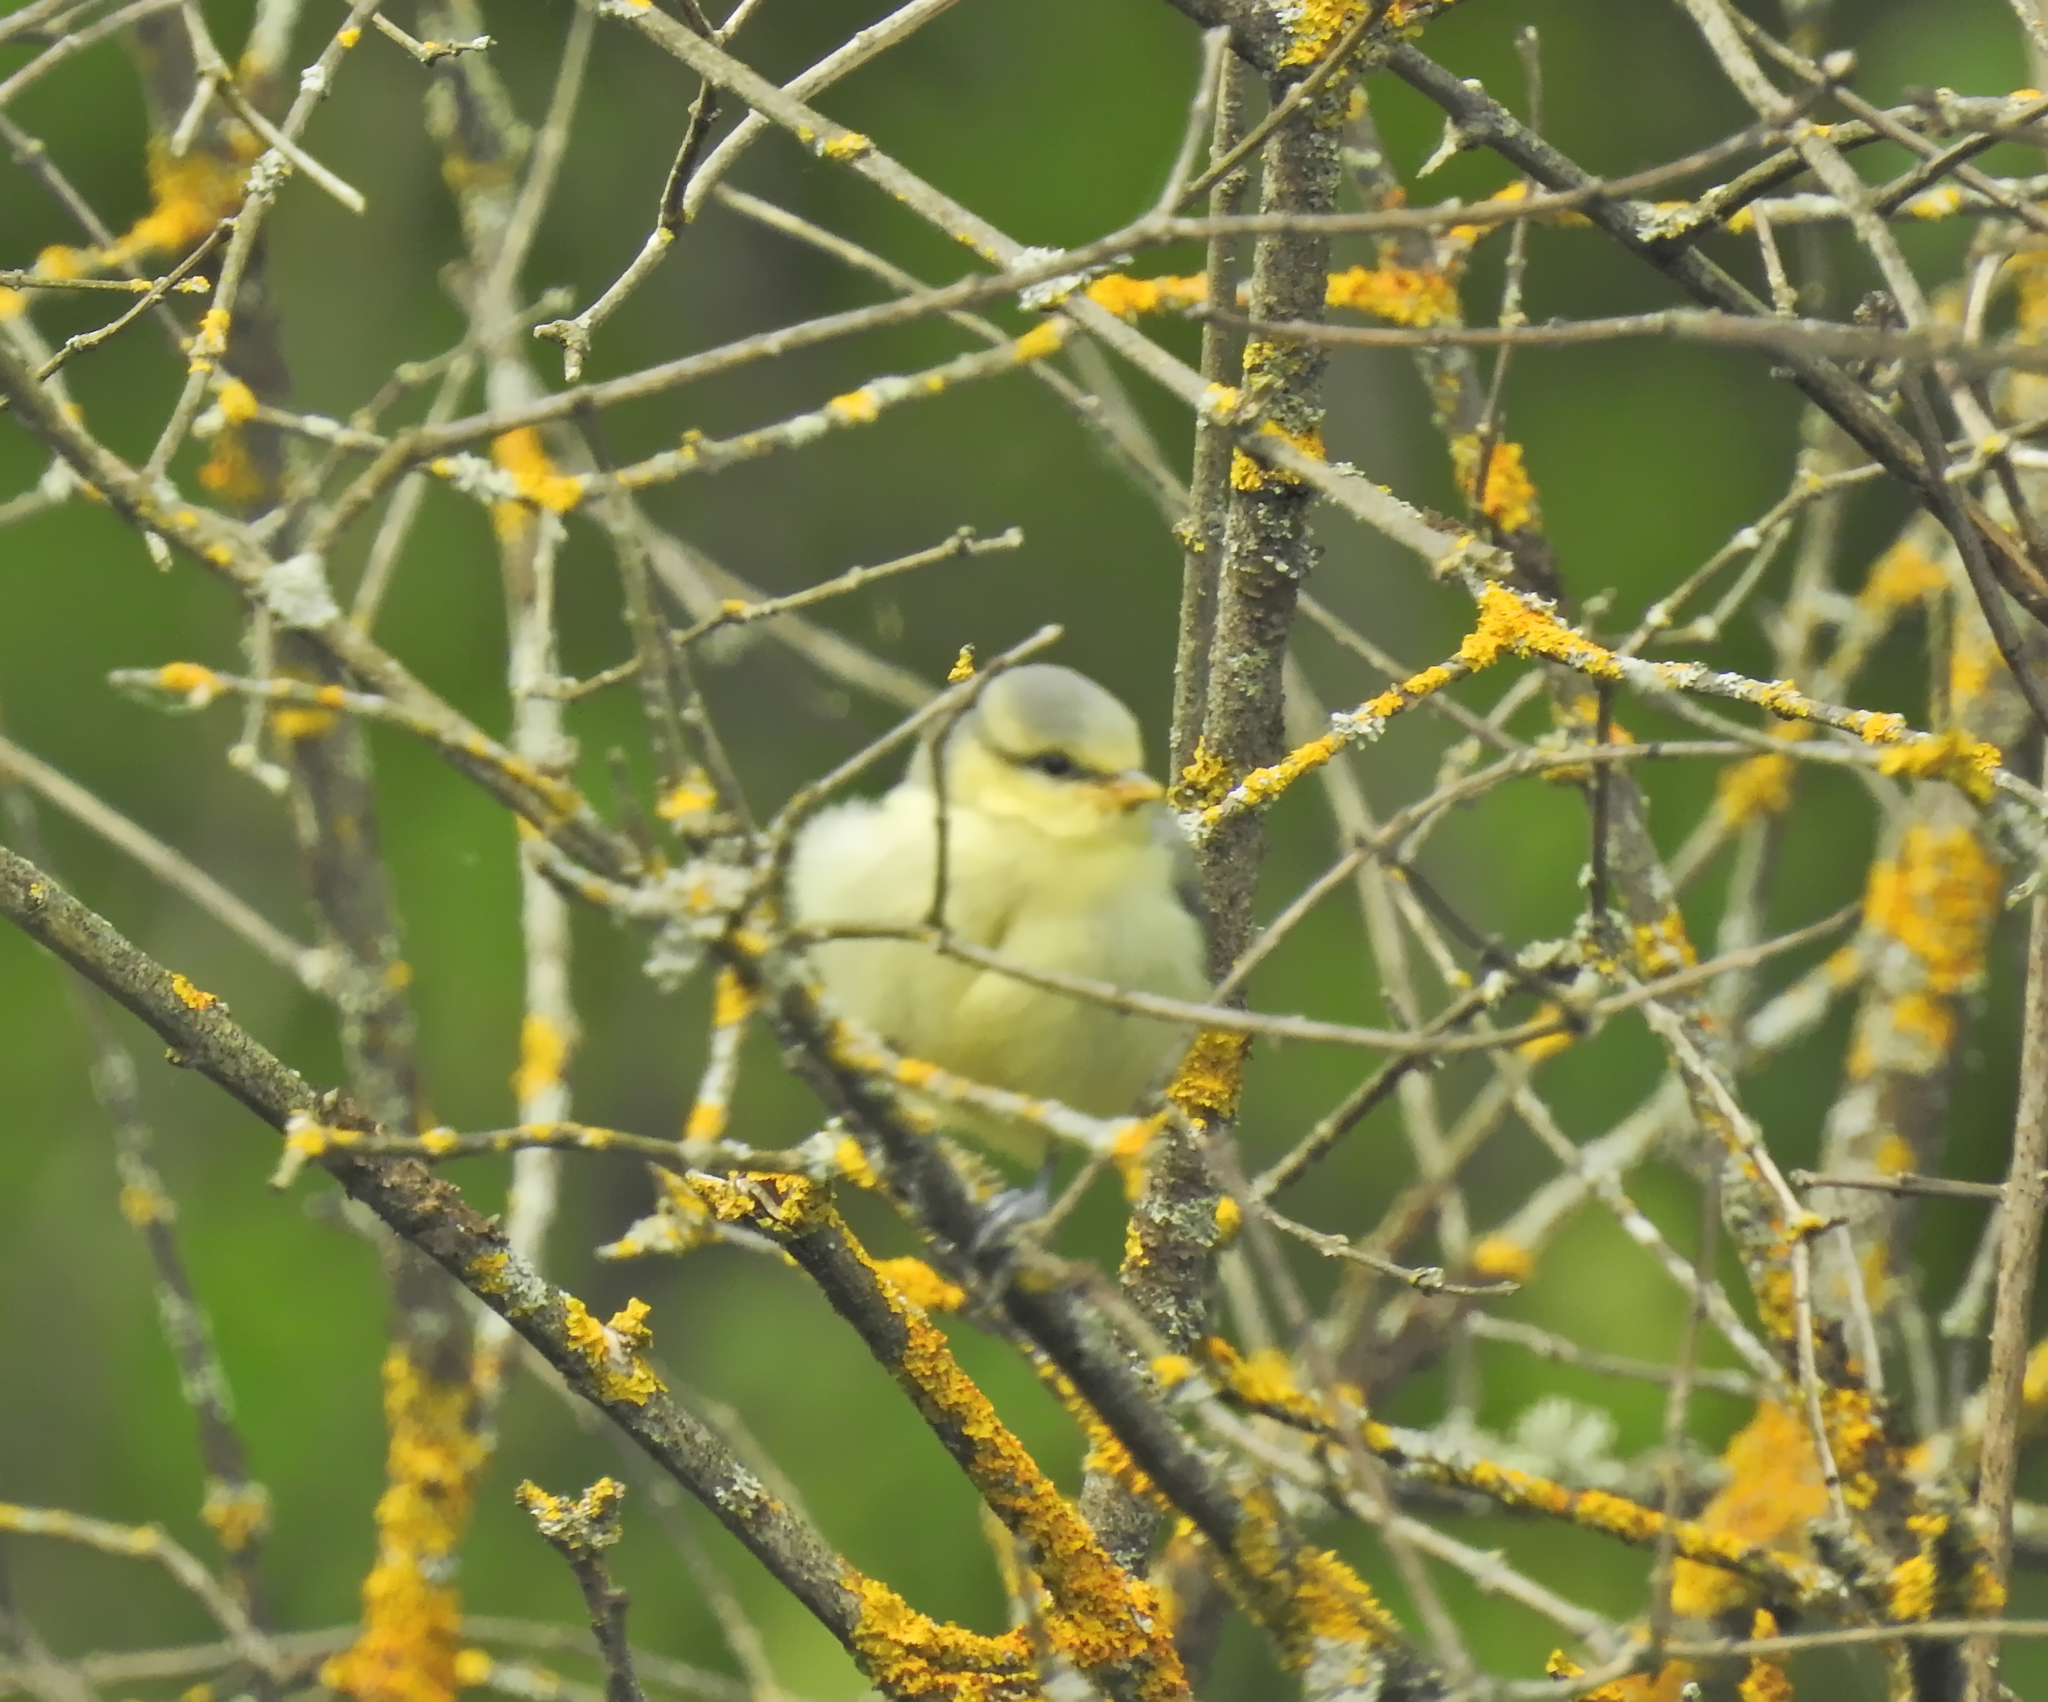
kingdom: Animalia
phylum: Chordata
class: Aves
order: Passeriformes
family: Paridae
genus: Cyanistes
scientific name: Cyanistes caeruleus
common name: Eurasian blue tit
